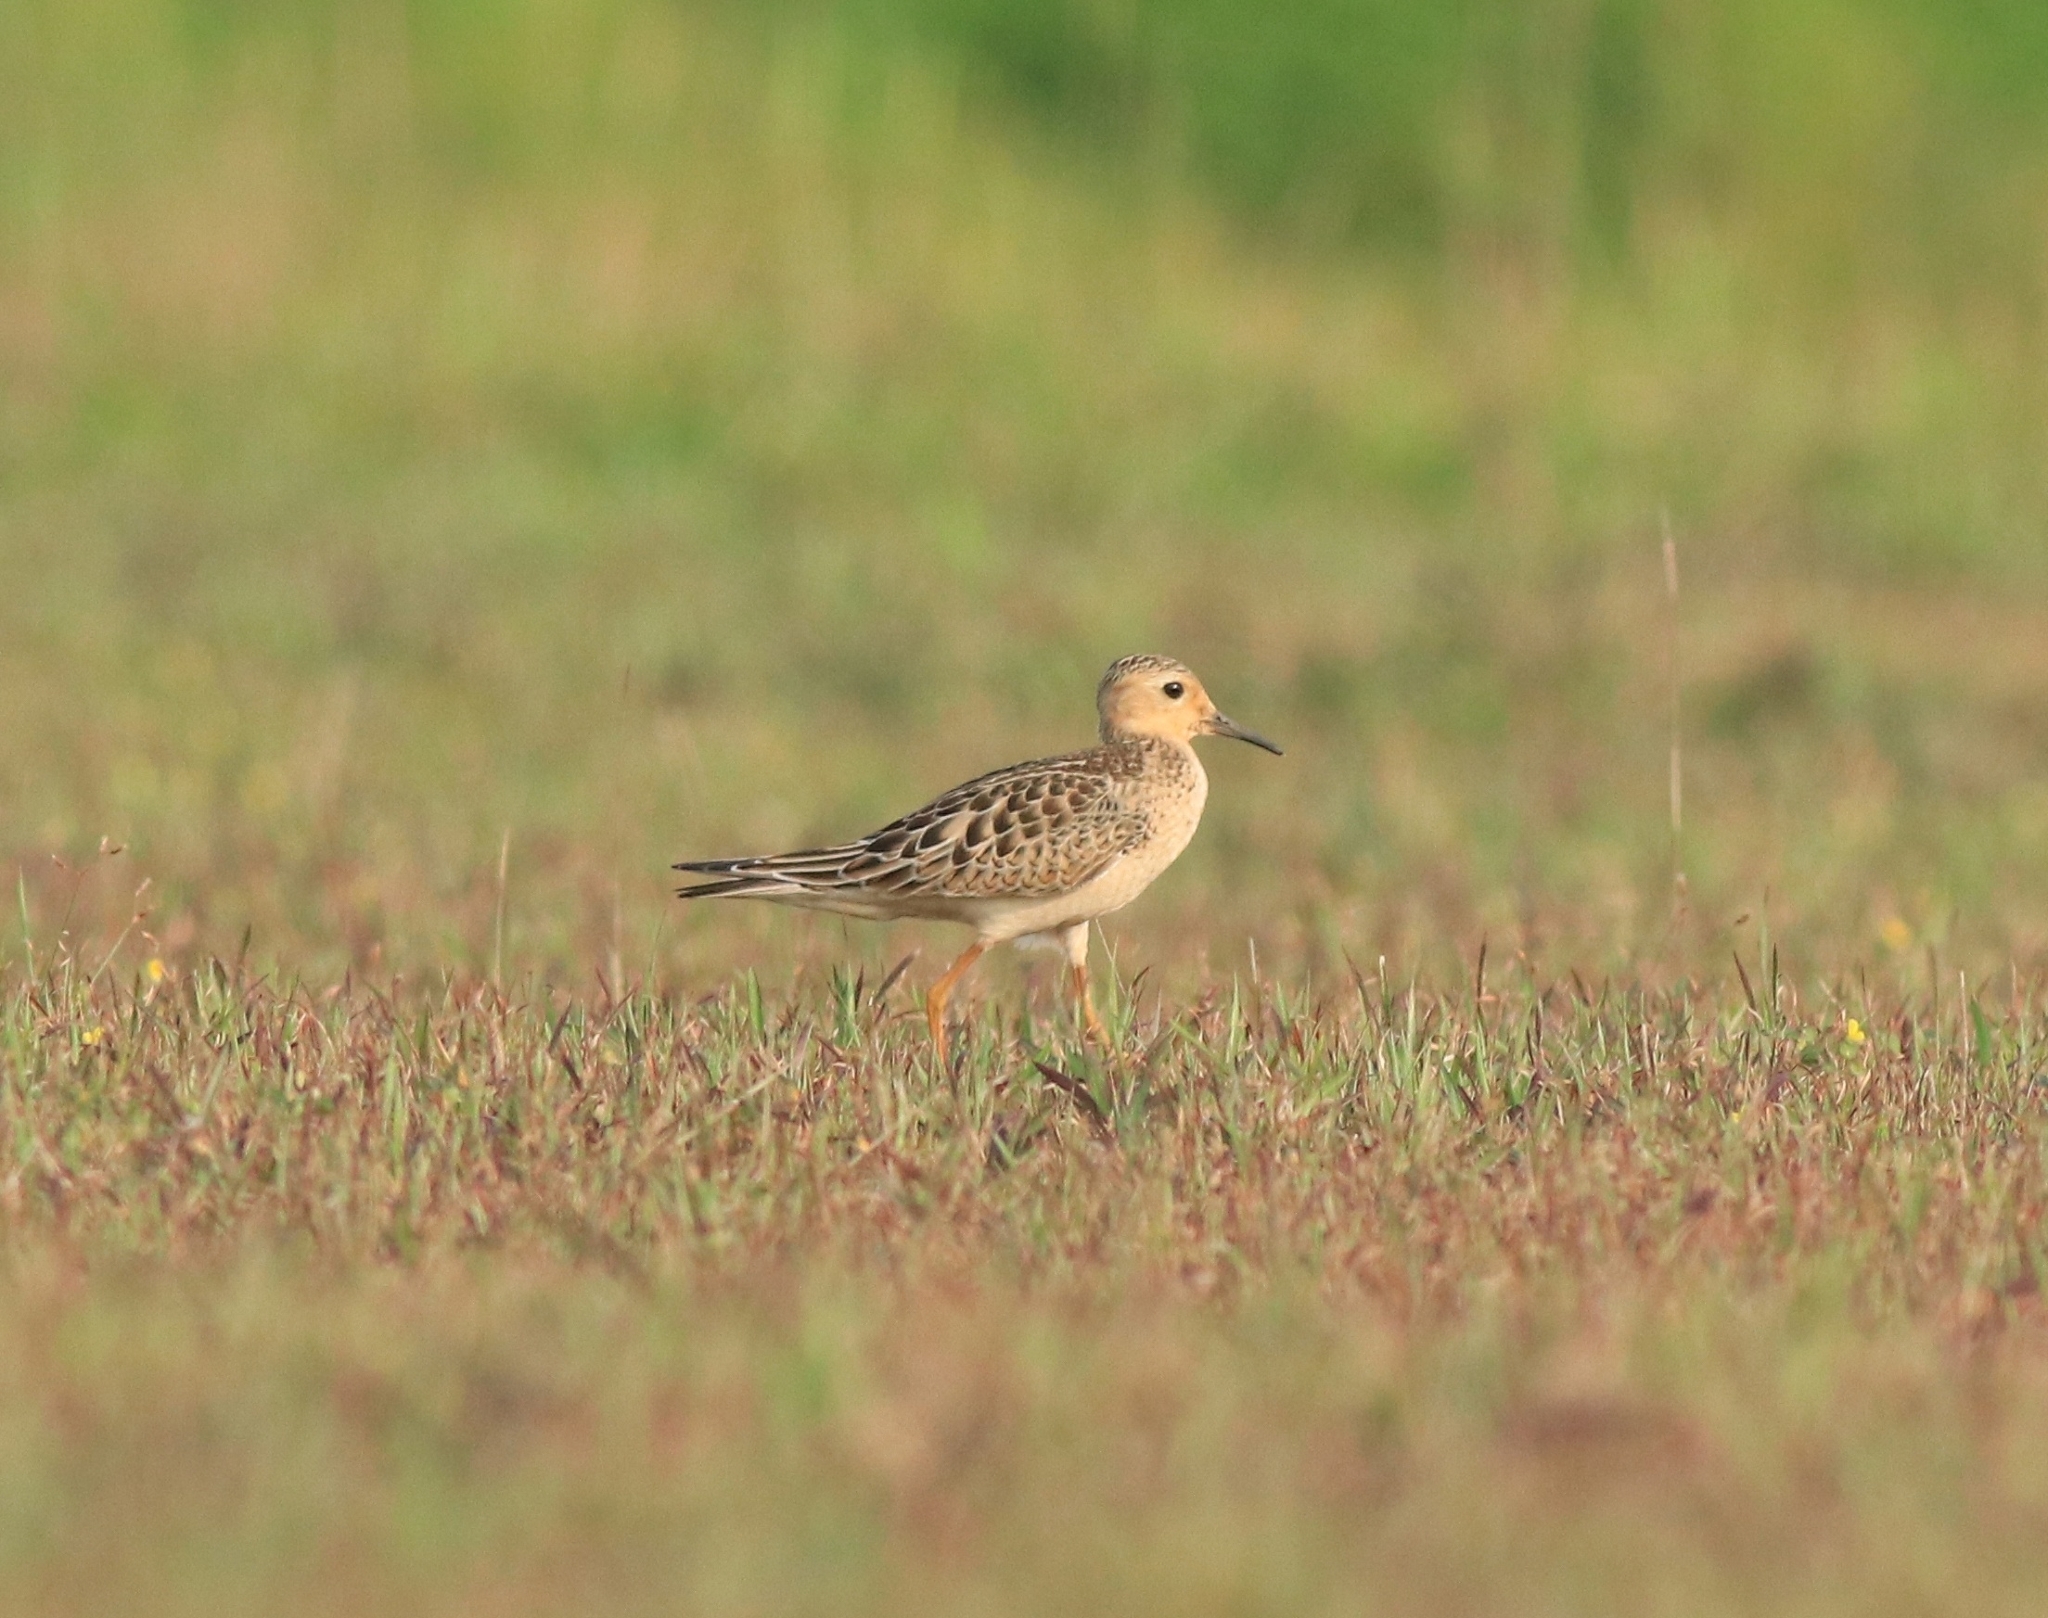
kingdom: Animalia
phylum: Chordata
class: Aves
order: Charadriiformes
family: Scolopacidae
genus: Calidris
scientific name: Calidris subruficollis
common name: Buff-breasted sandpiper
